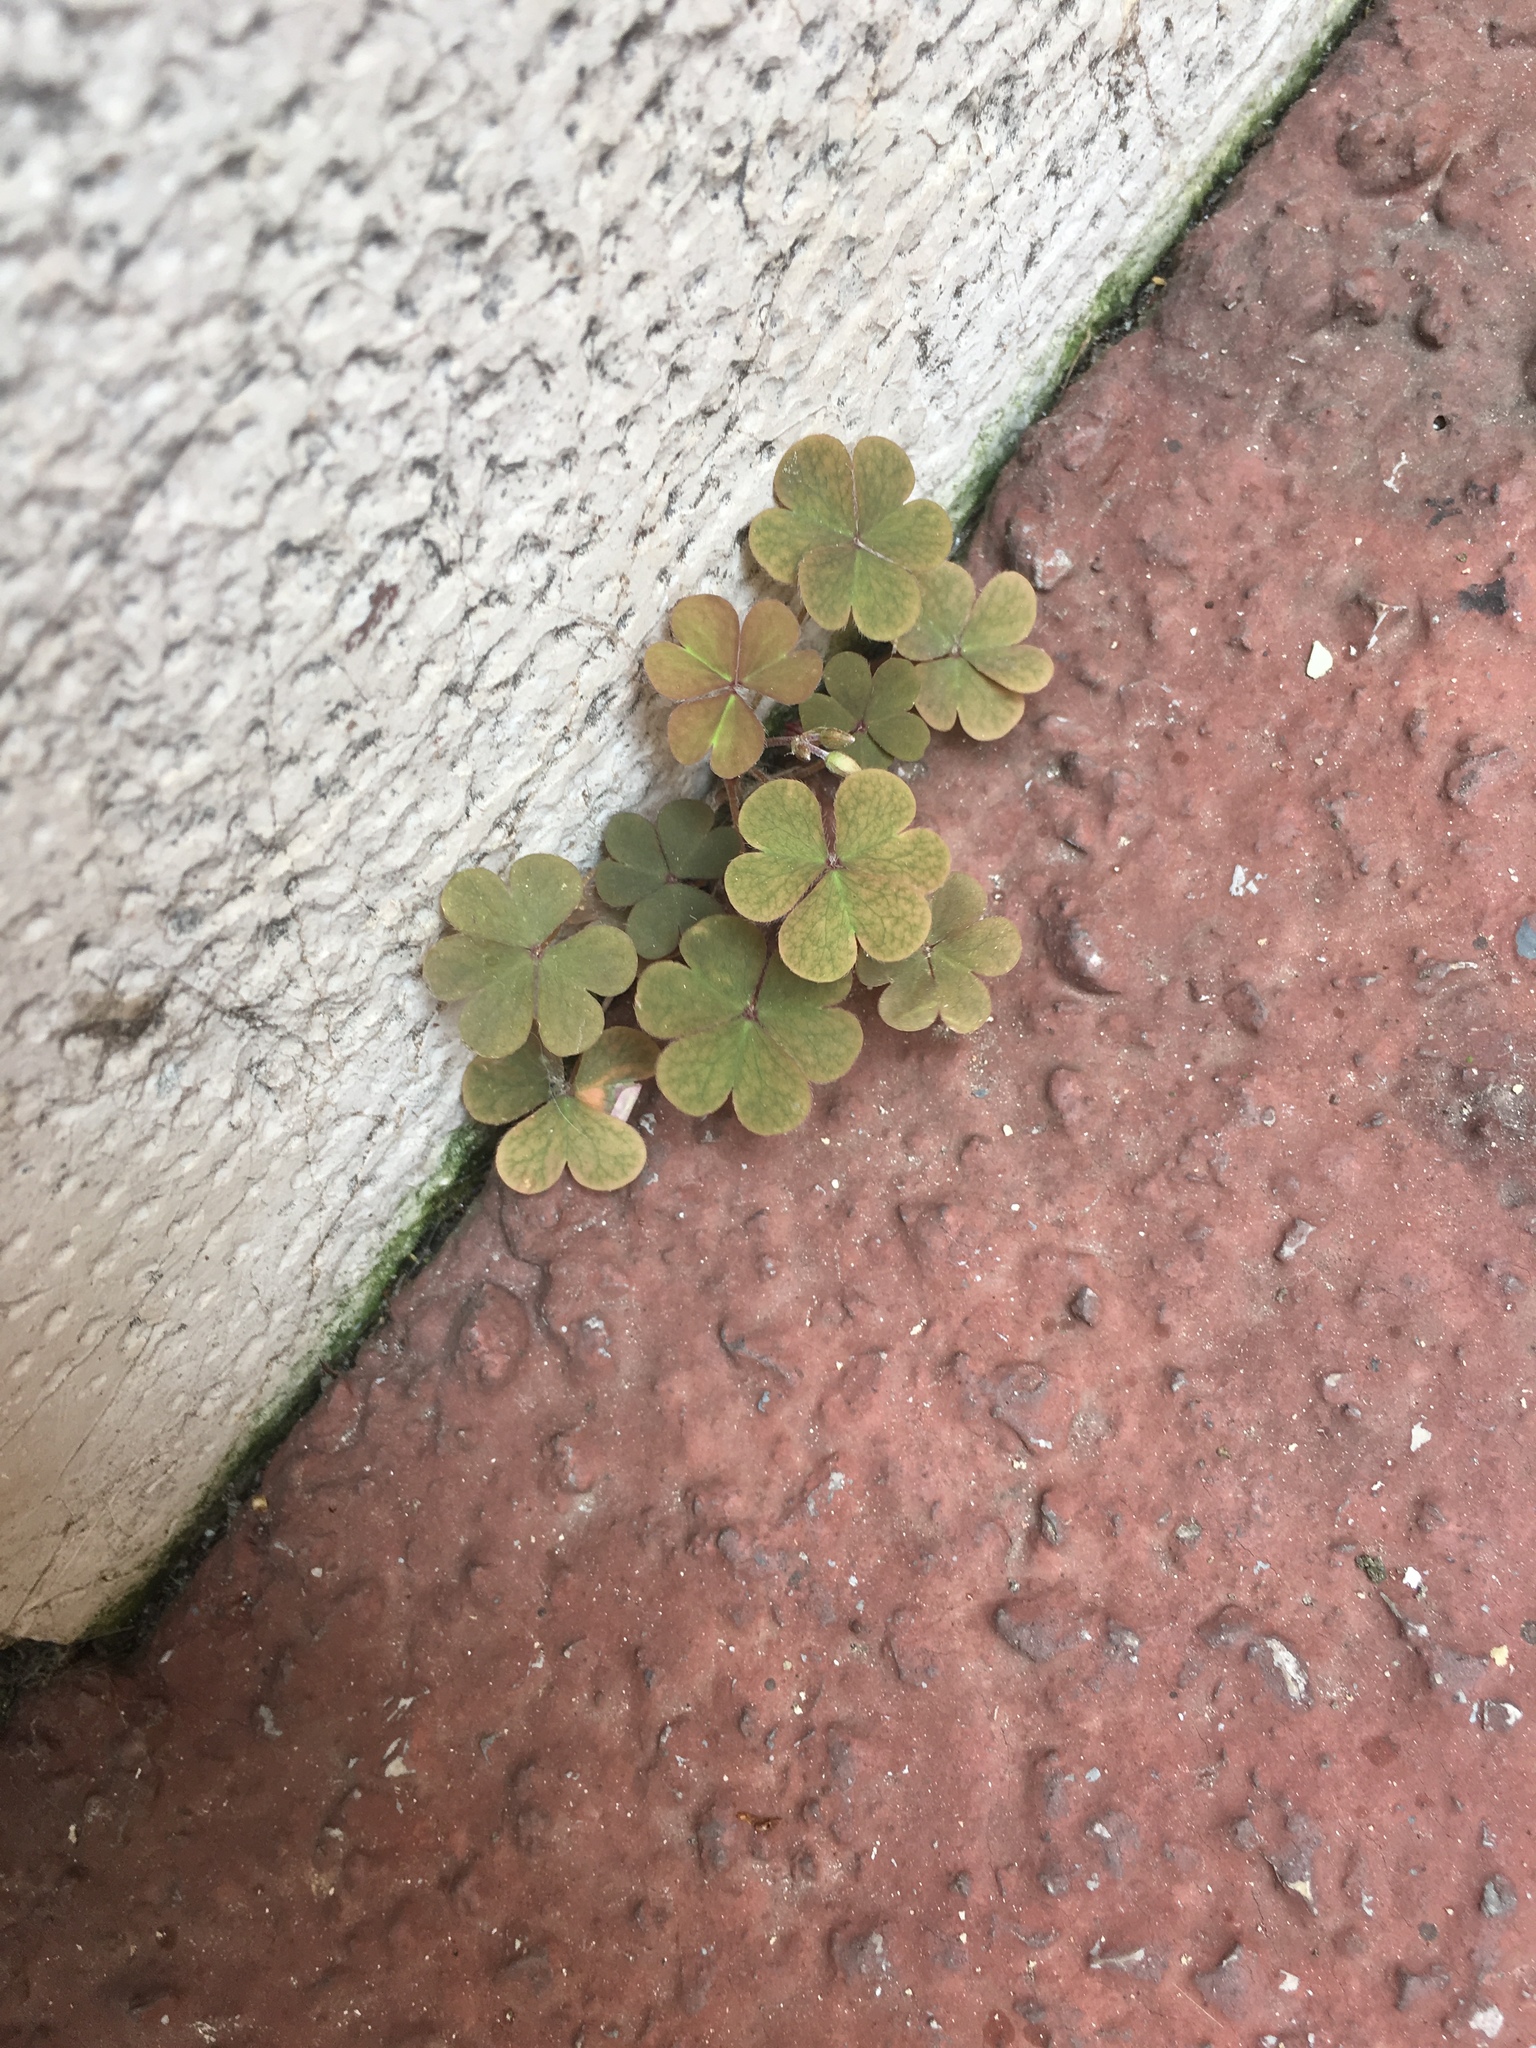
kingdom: Plantae
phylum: Tracheophyta
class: Magnoliopsida
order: Oxalidales
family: Oxalidaceae
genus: Oxalis
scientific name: Oxalis corniculata
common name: Procumbent yellow-sorrel
